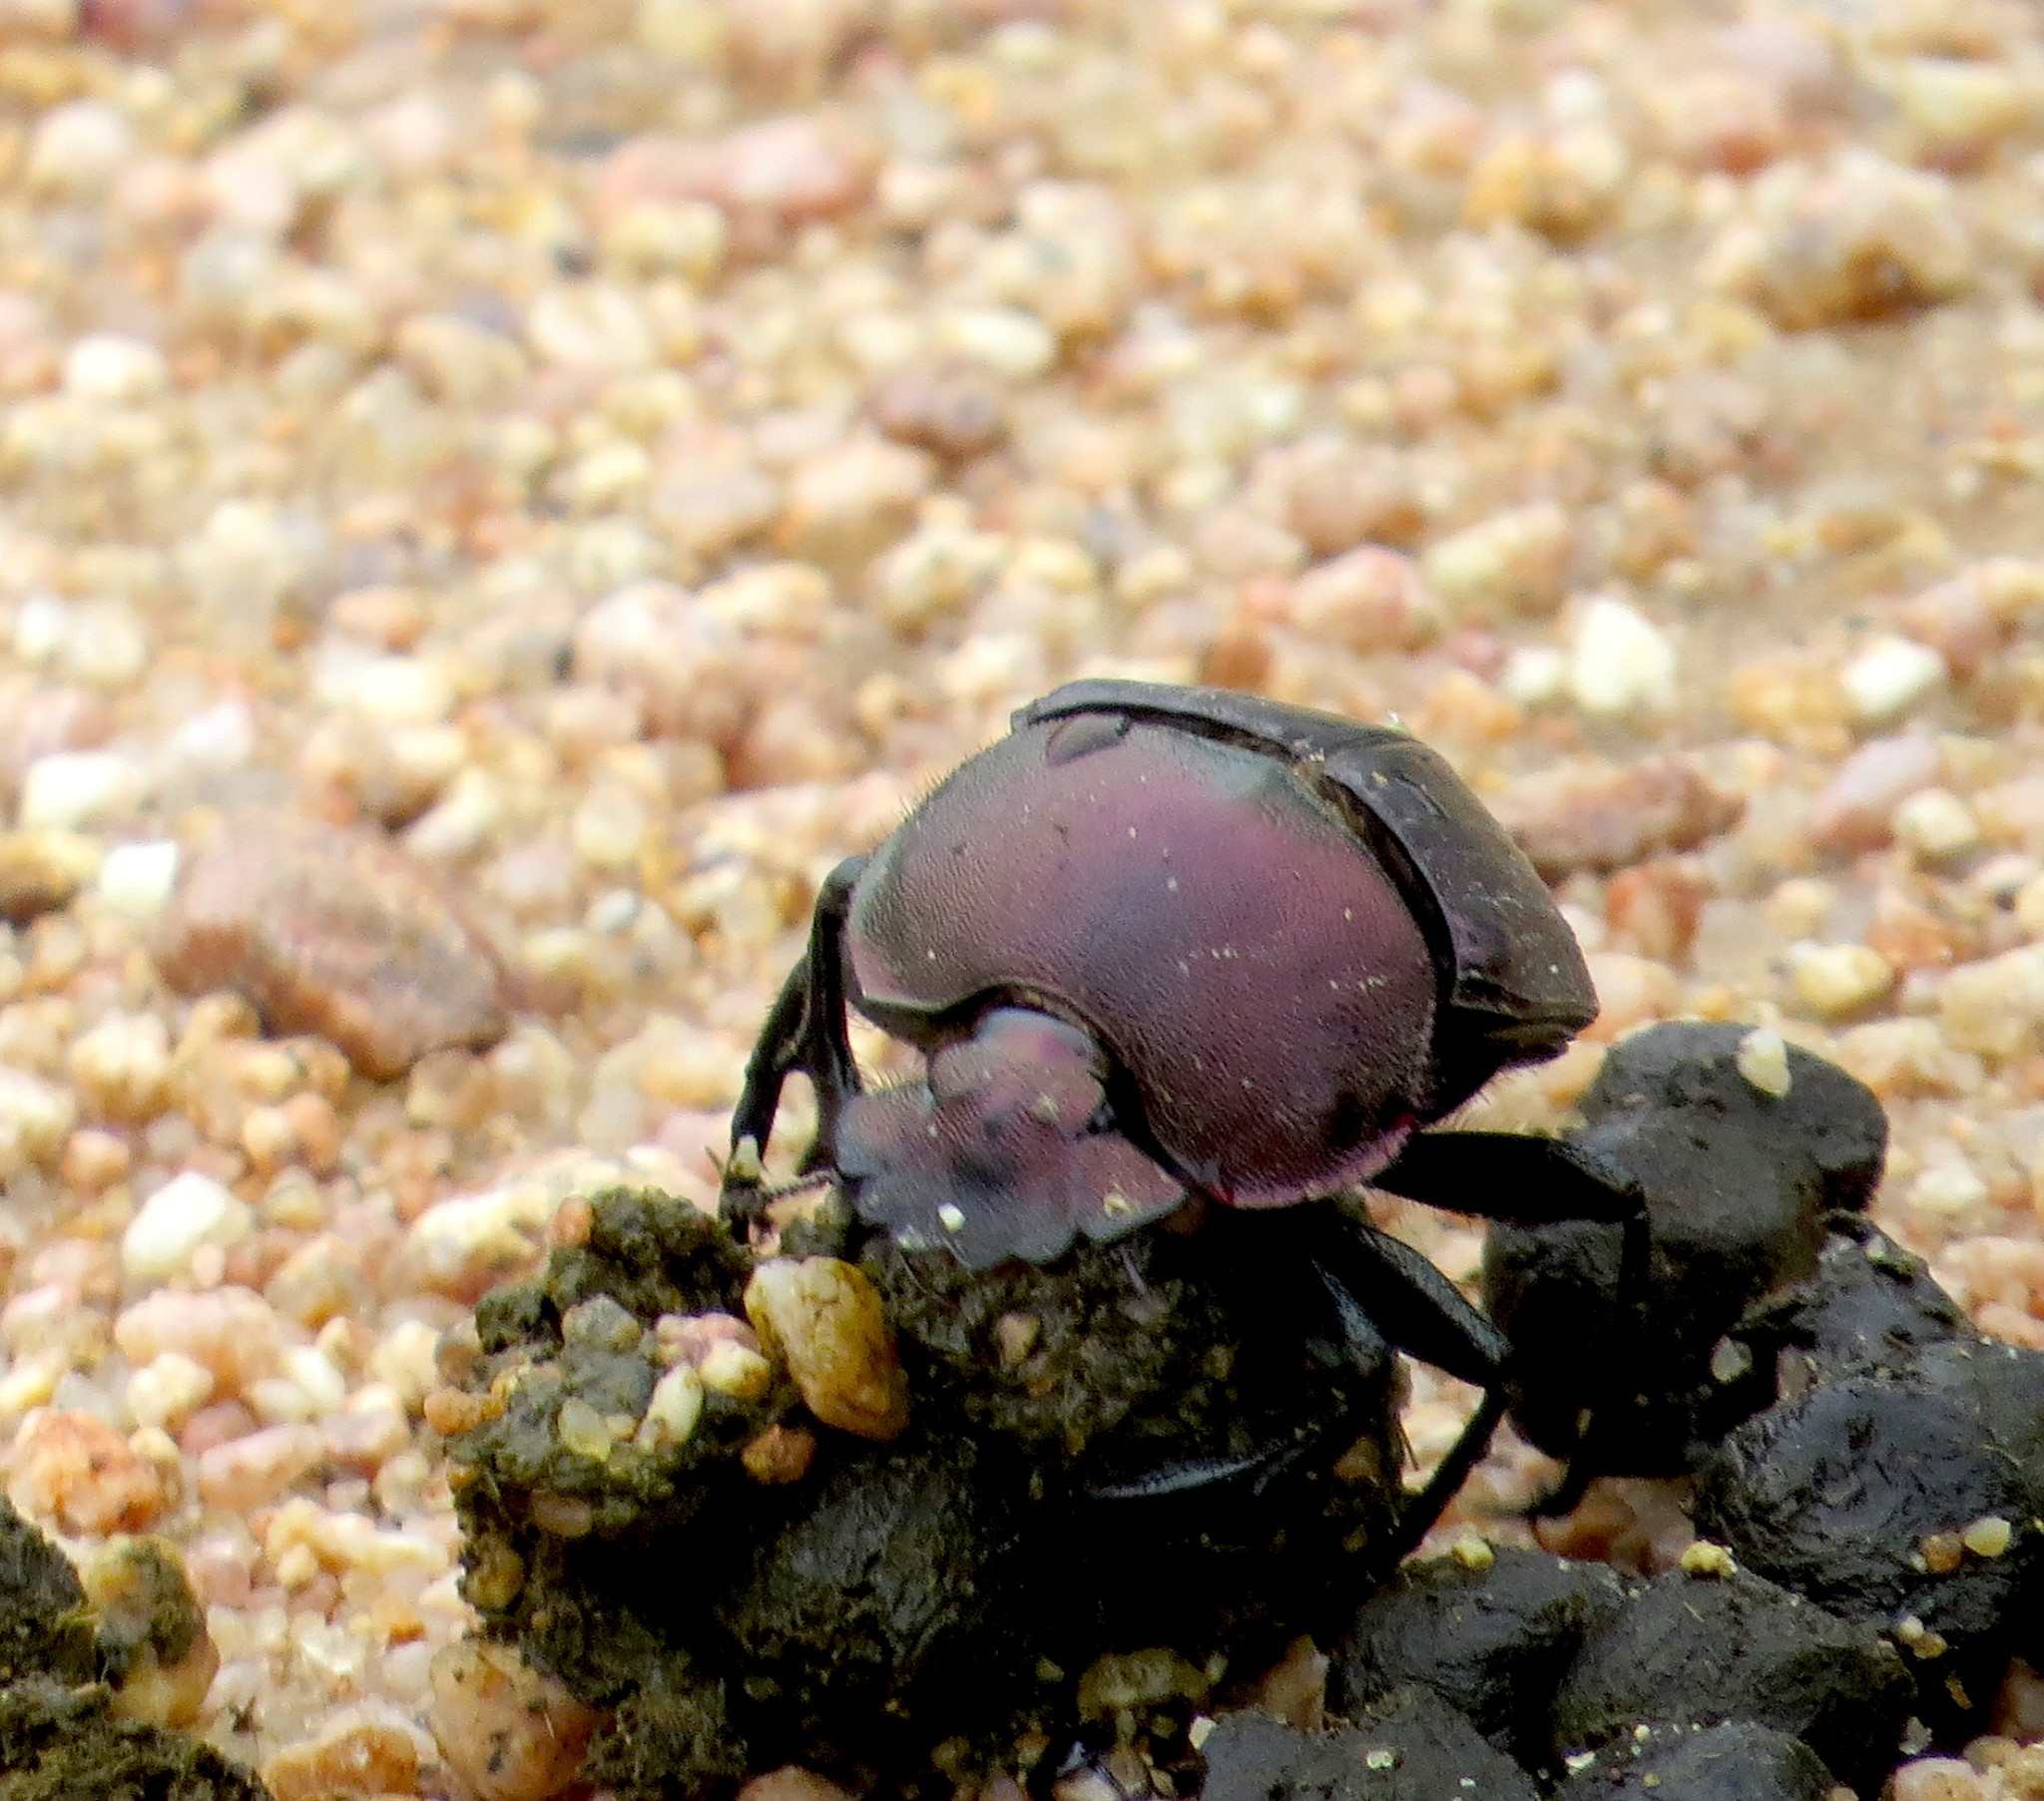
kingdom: Animalia
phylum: Arthropoda
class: Insecta
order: Coleoptera
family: Scarabaeidae
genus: Kheper
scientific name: Kheper nigroaeneus
